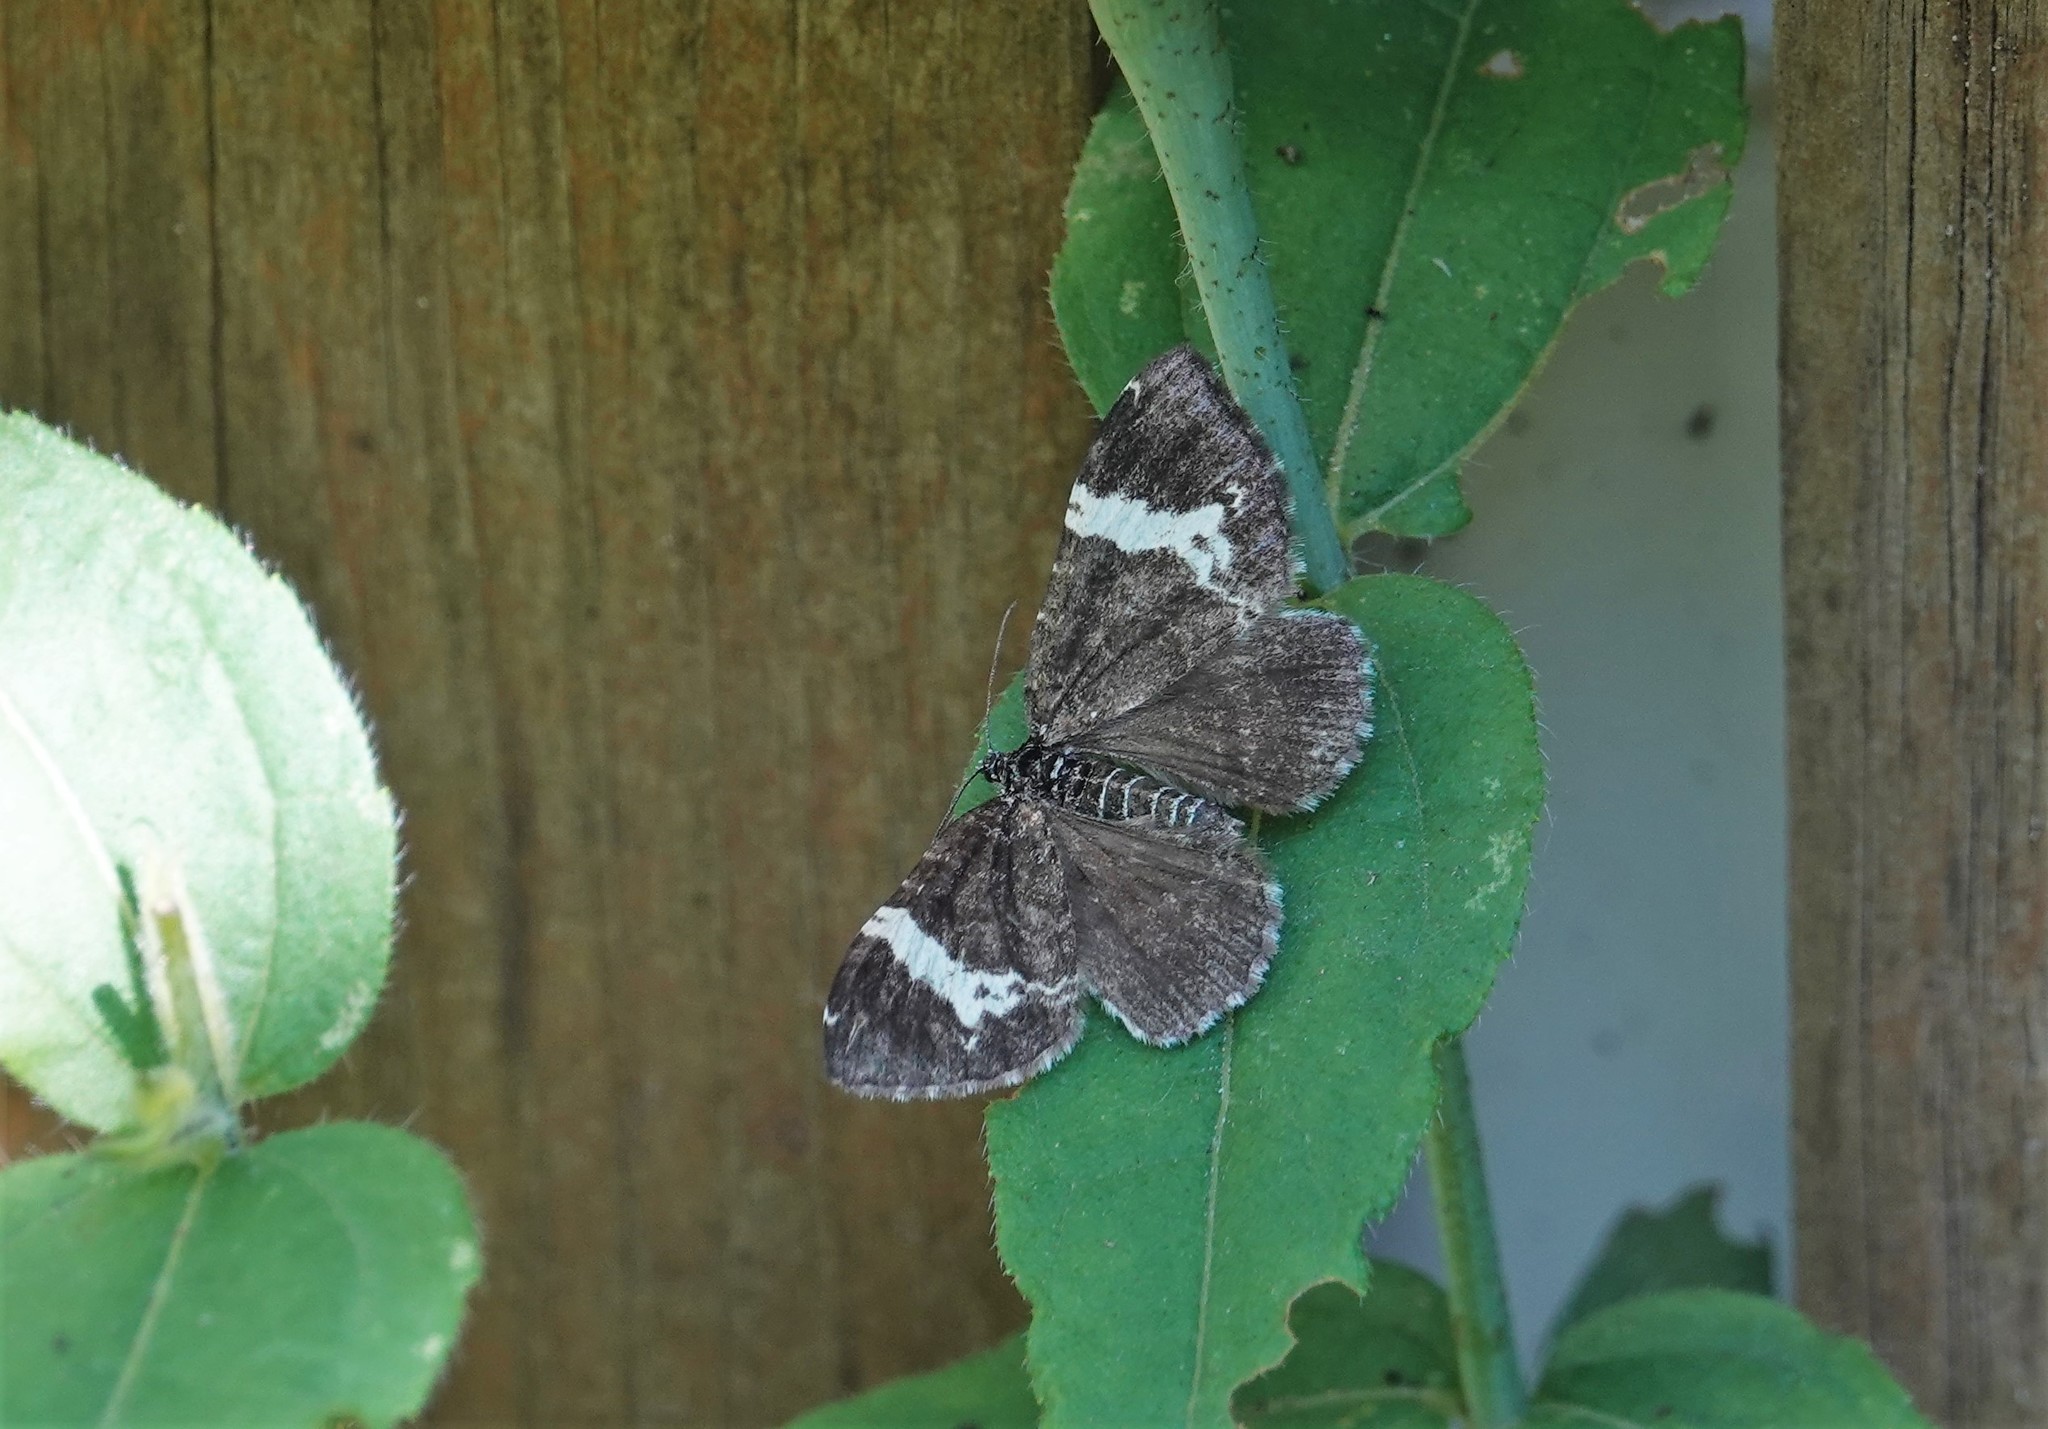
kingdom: Animalia
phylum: Arthropoda
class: Insecta
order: Lepidoptera
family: Geometridae
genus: Rheumaptera
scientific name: Rheumaptera
